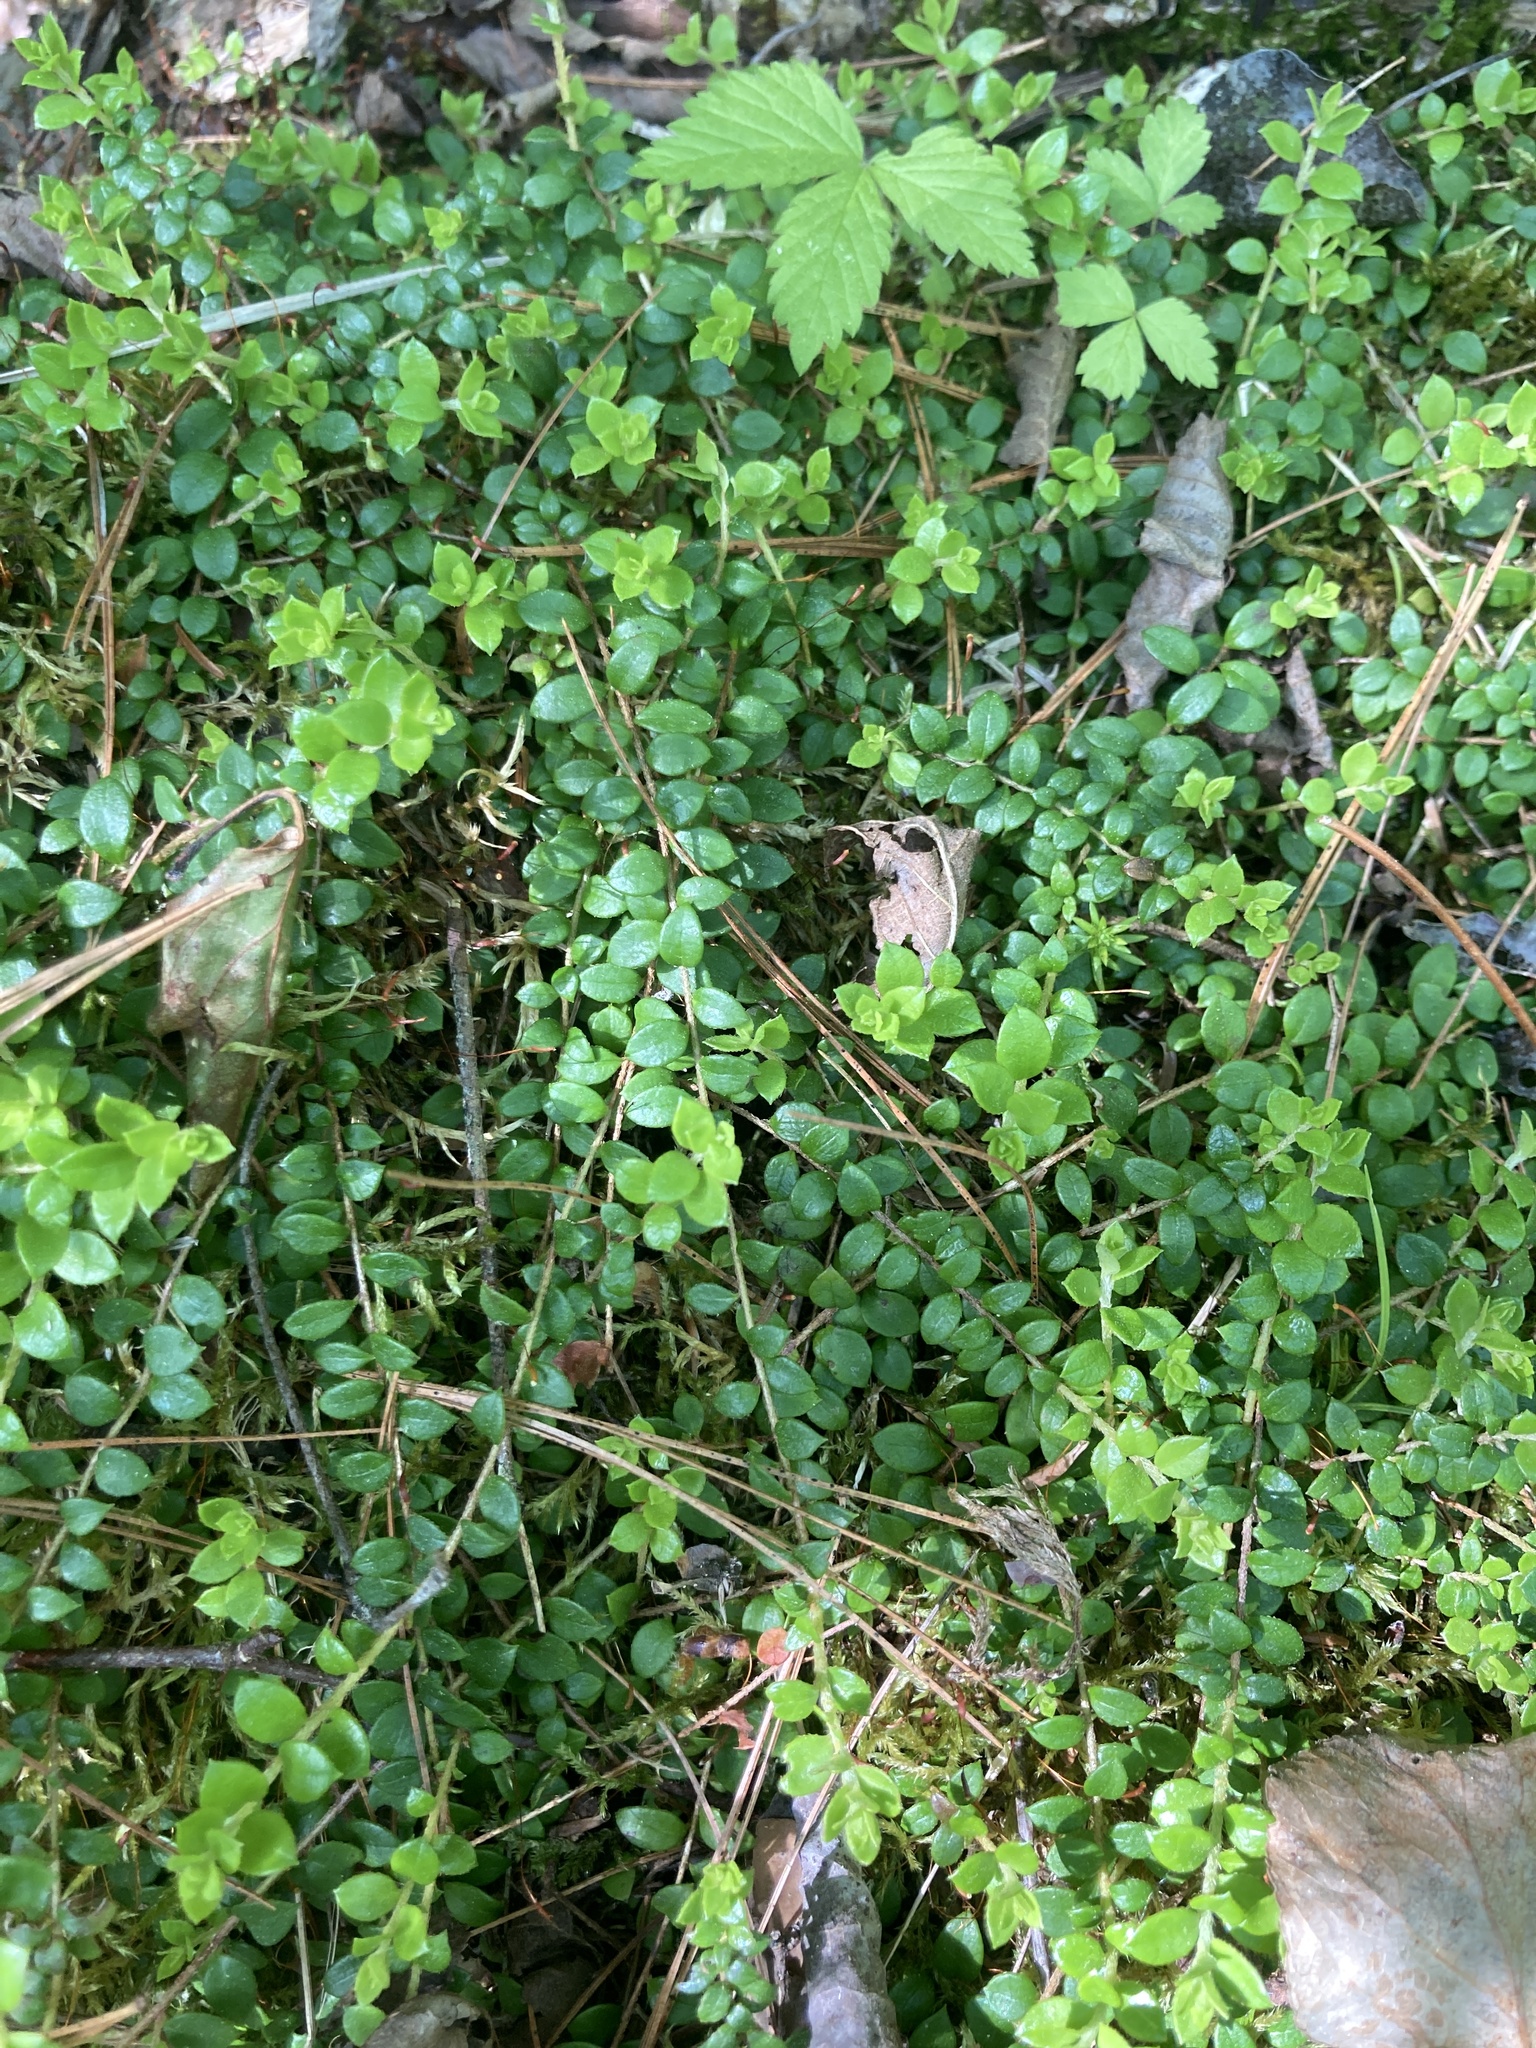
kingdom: Plantae
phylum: Tracheophyta
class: Magnoliopsida
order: Ericales
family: Ericaceae
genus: Gaultheria
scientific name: Gaultheria hispidula
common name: Cancer wintergreen
